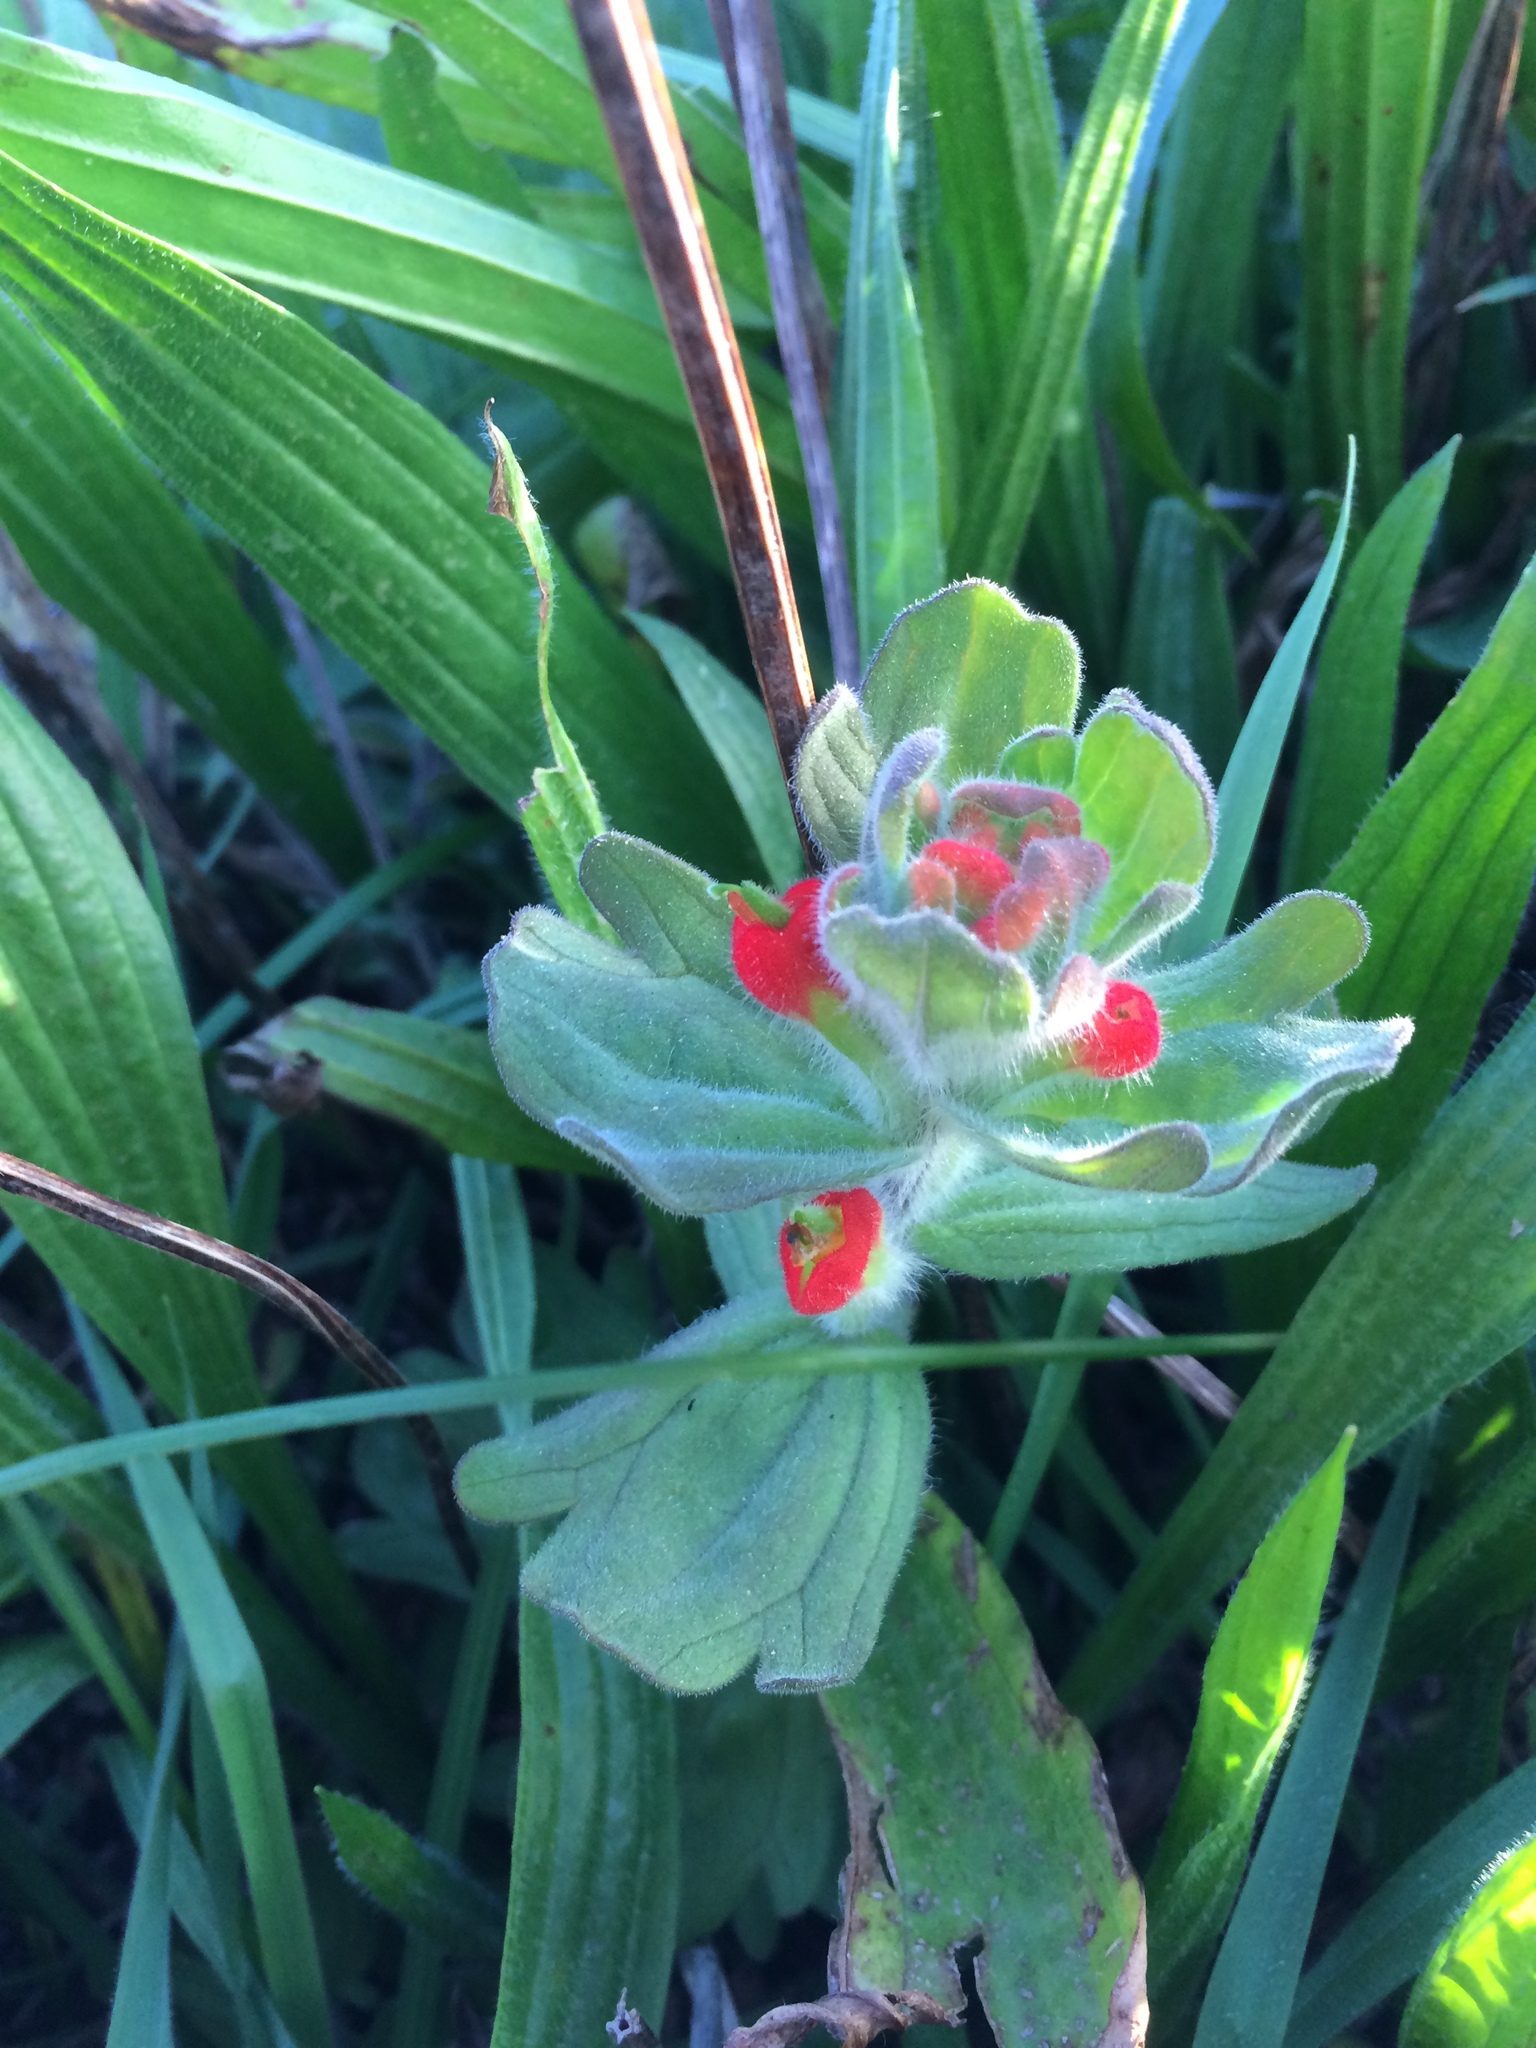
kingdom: Plantae
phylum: Tracheophyta
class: Magnoliopsida
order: Lamiales
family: Orobanchaceae
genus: Castilleja
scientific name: Castilleja mendocinensis
